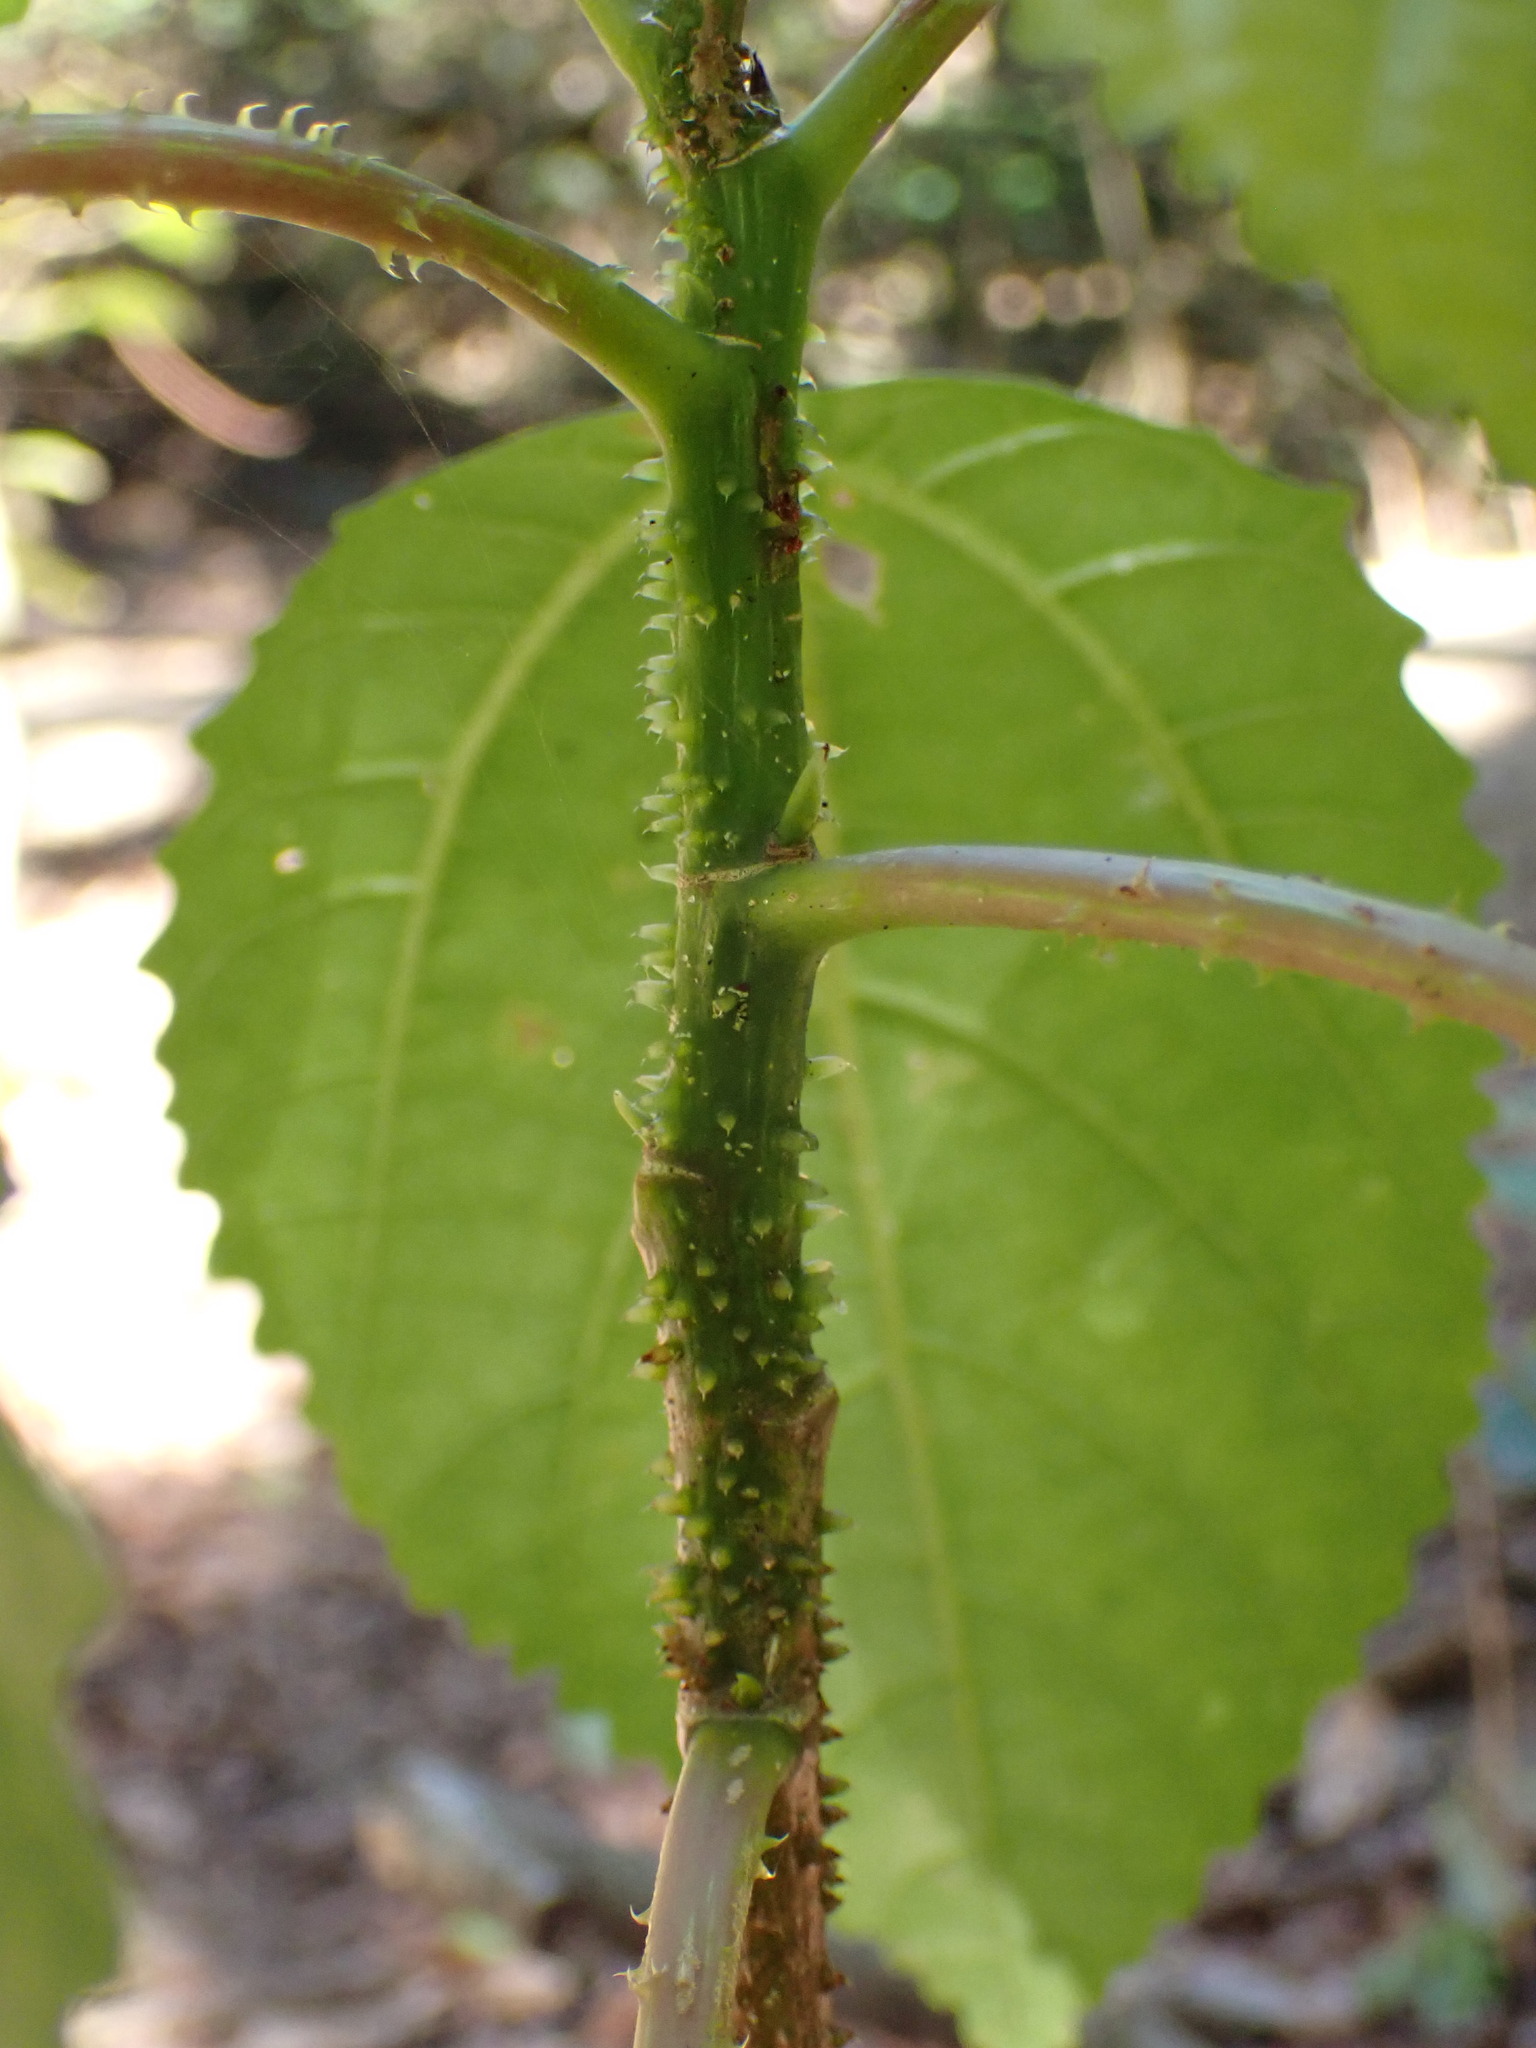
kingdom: Plantae
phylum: Tracheophyta
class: Magnoliopsida
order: Rosales
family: Urticaceae
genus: Dendrocnide
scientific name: Dendrocnide photiniphylla
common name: Shiny-leaved stinging tree
